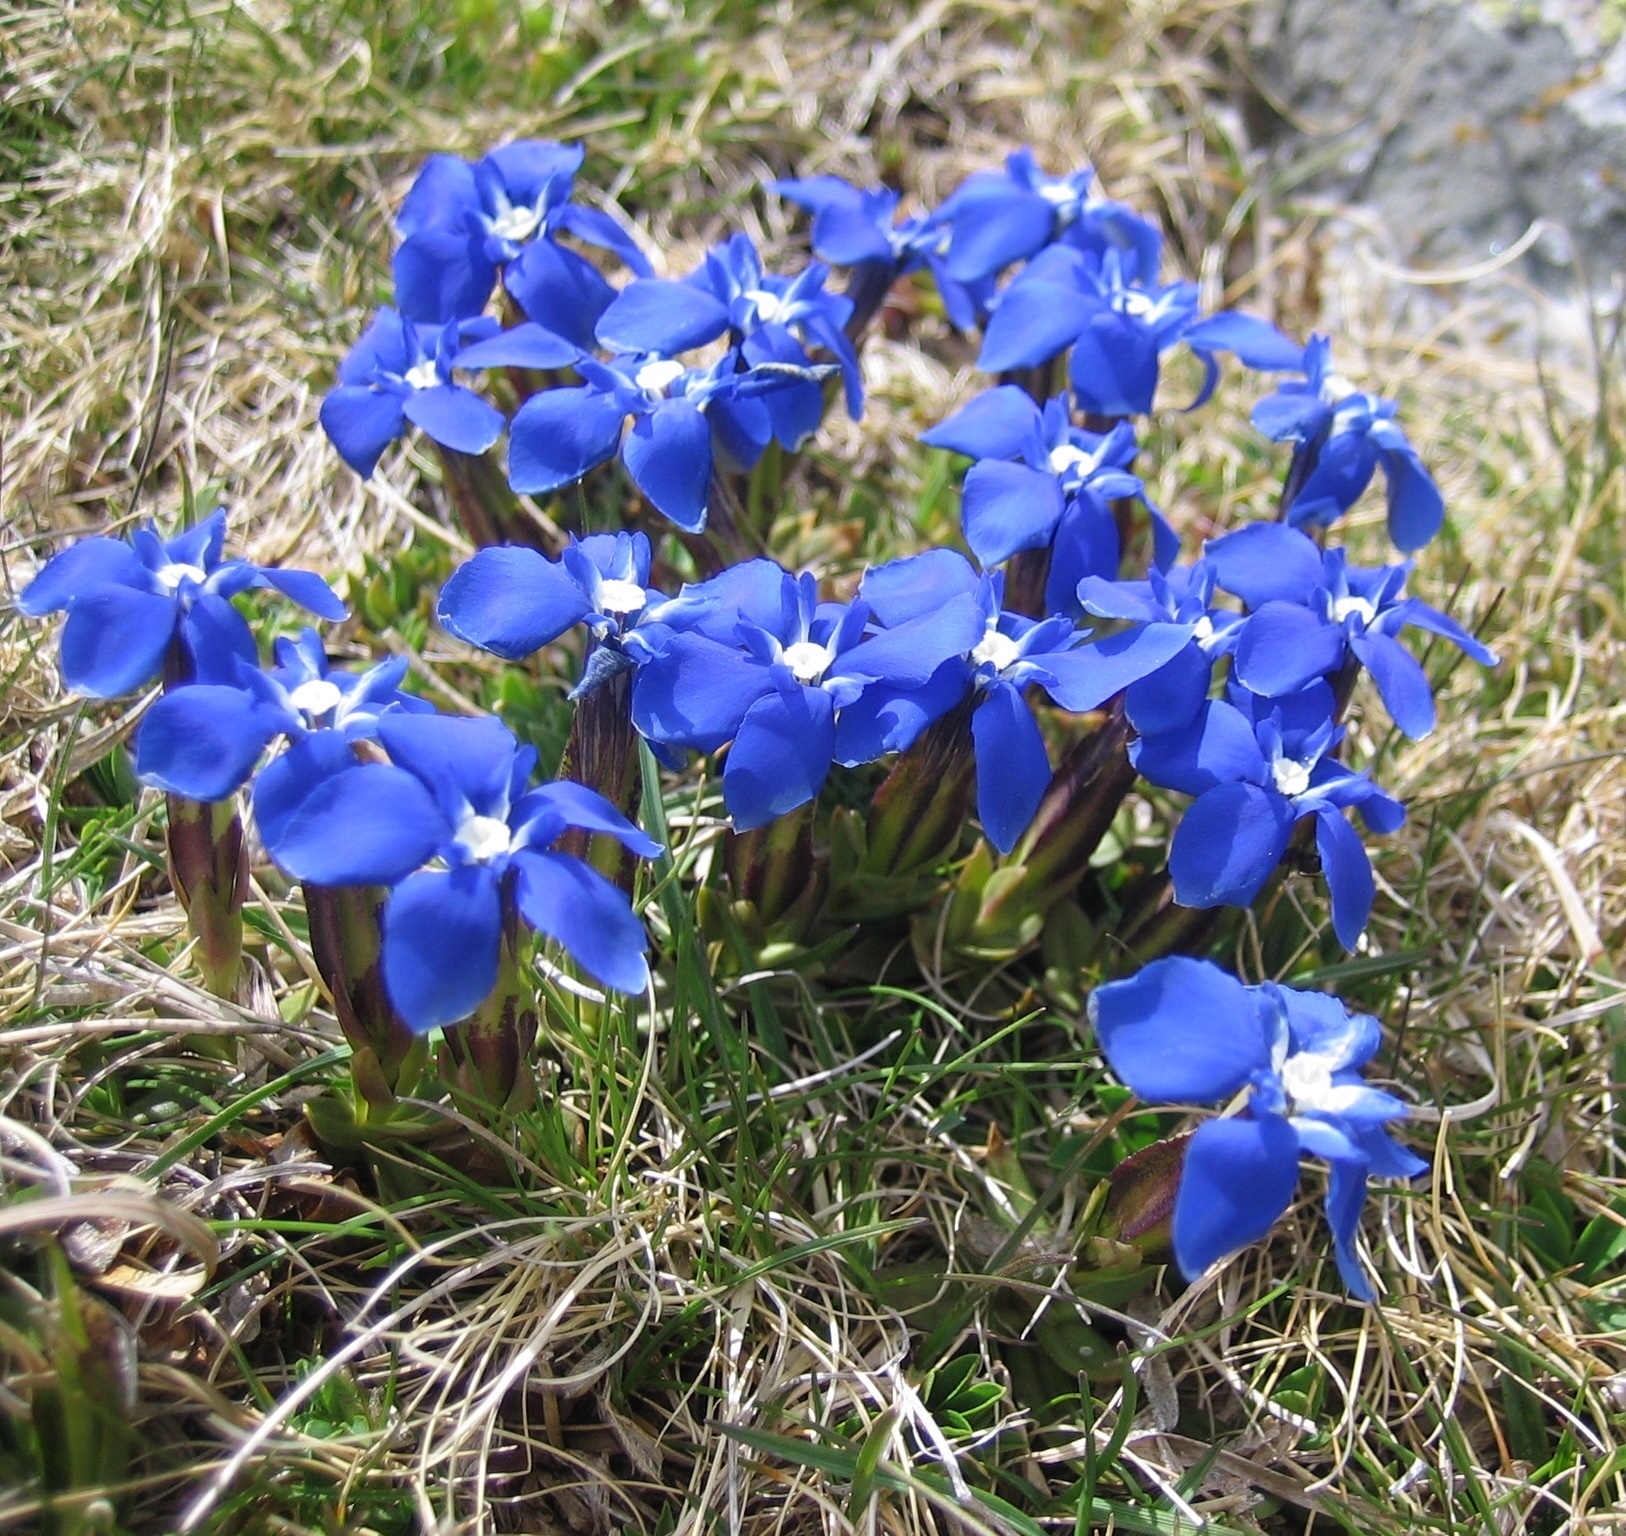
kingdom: Plantae
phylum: Tracheophyta
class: Magnoliopsida
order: Gentianales
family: Gentianaceae
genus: Gentiana
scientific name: Gentiana verna
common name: Spring gentian
